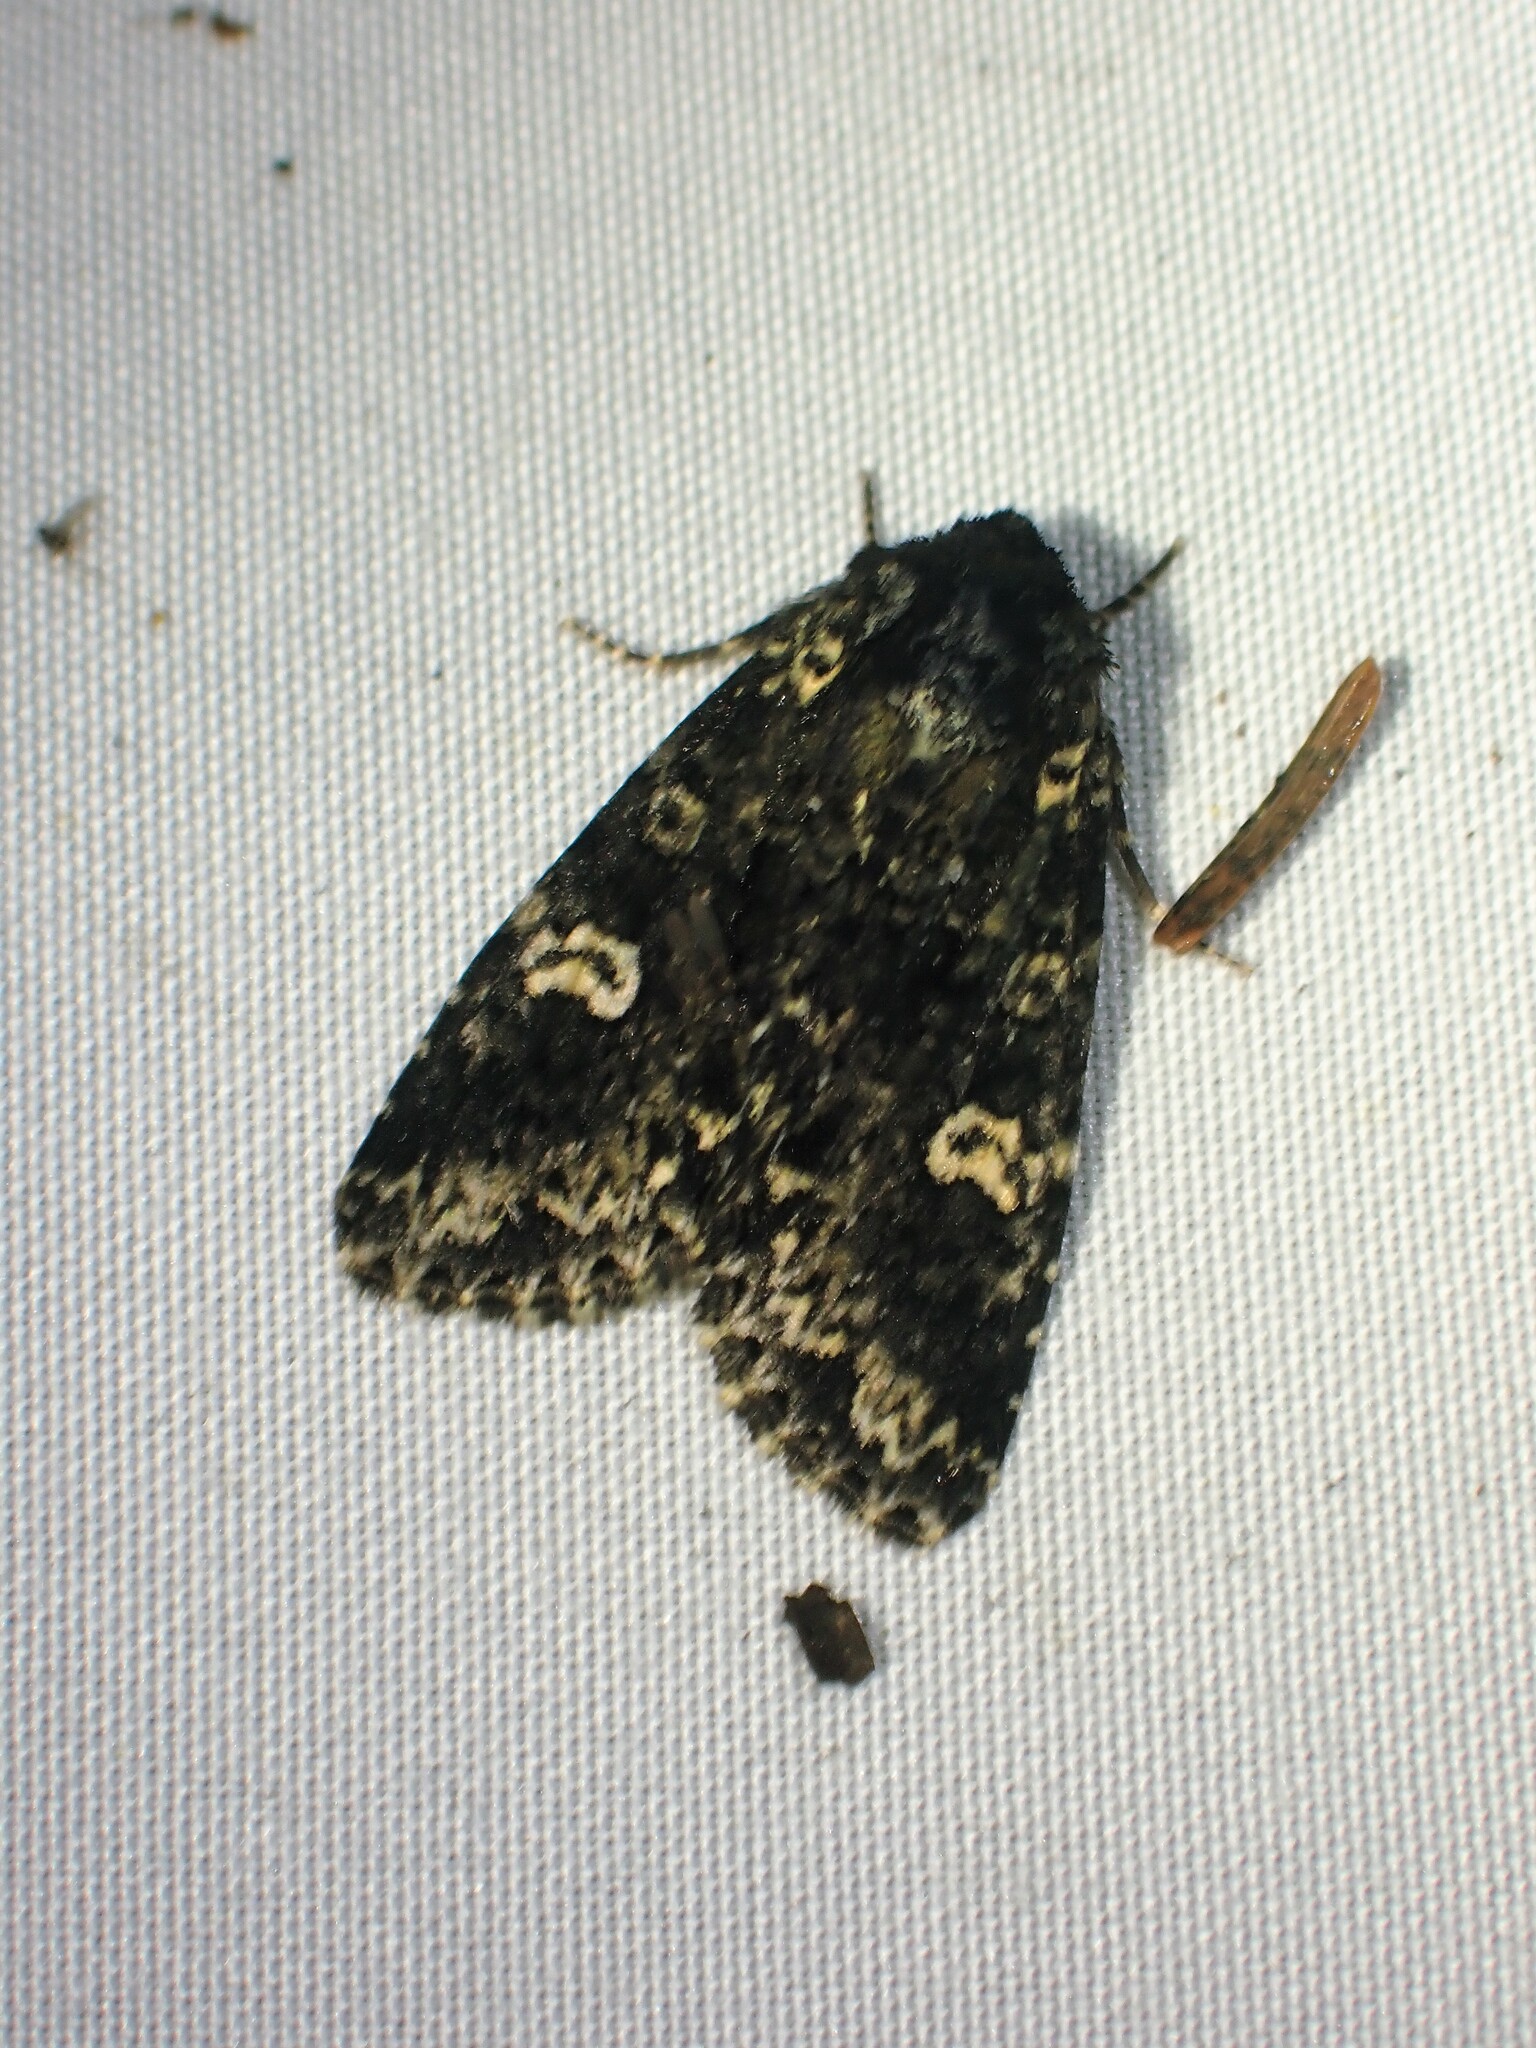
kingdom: Animalia
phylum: Arthropoda
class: Insecta
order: Lepidoptera
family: Noctuidae
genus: Melanchra
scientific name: Melanchra adjuncta
